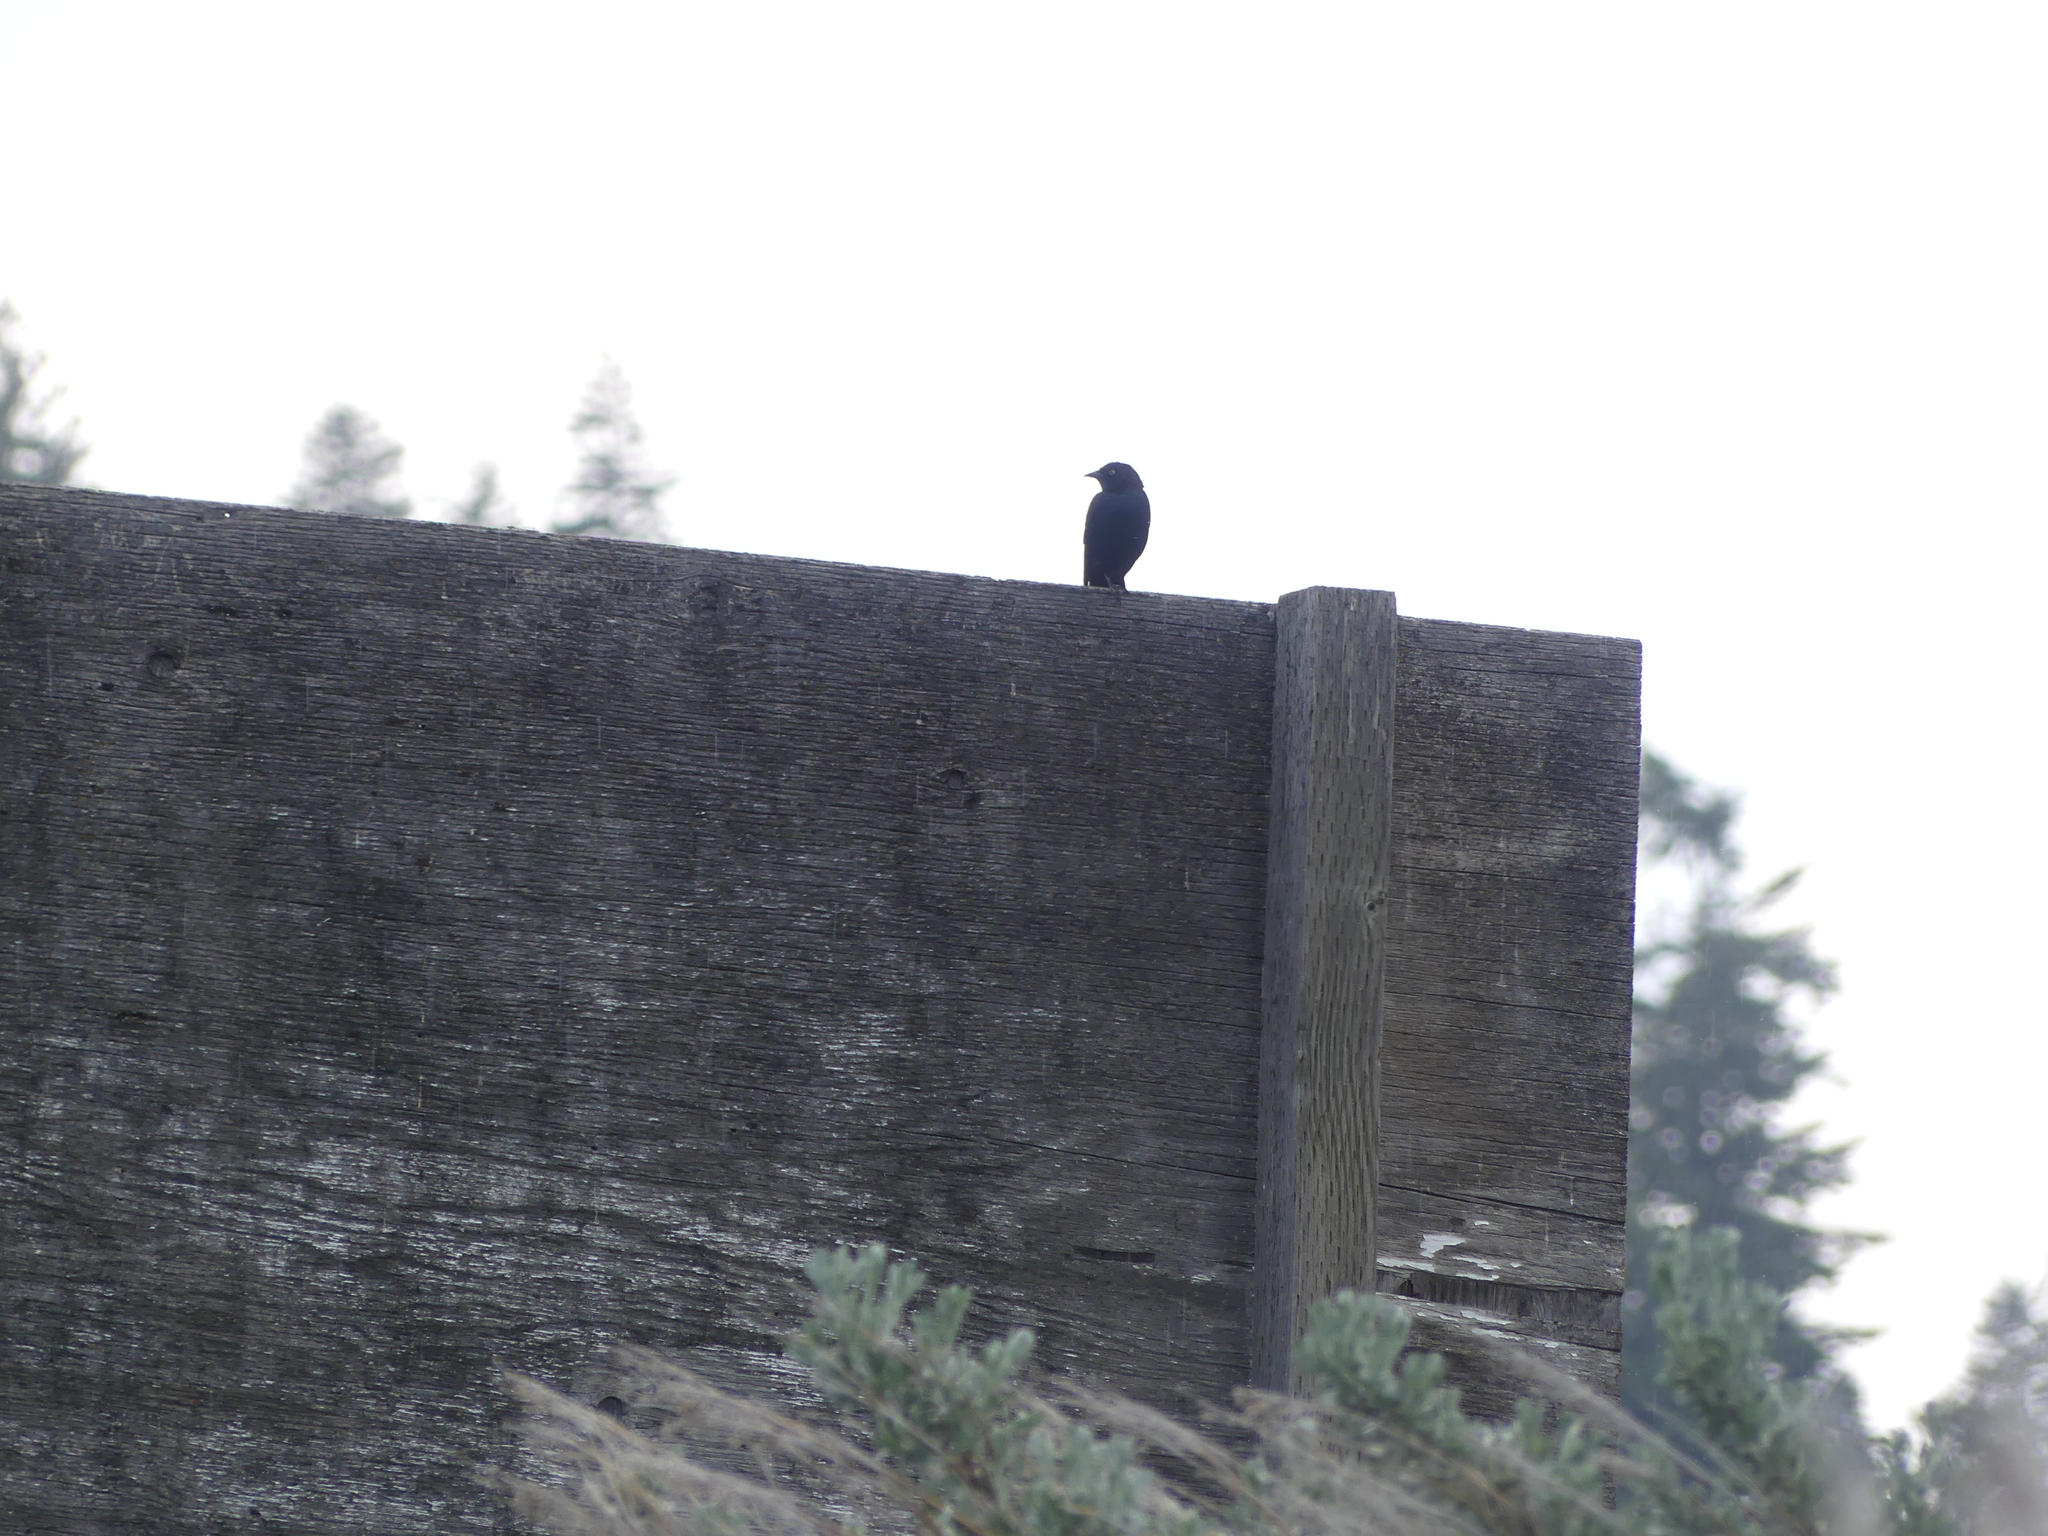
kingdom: Animalia
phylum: Chordata
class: Aves
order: Passeriformes
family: Icteridae
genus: Euphagus
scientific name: Euphagus cyanocephalus
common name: Brewer's blackbird
